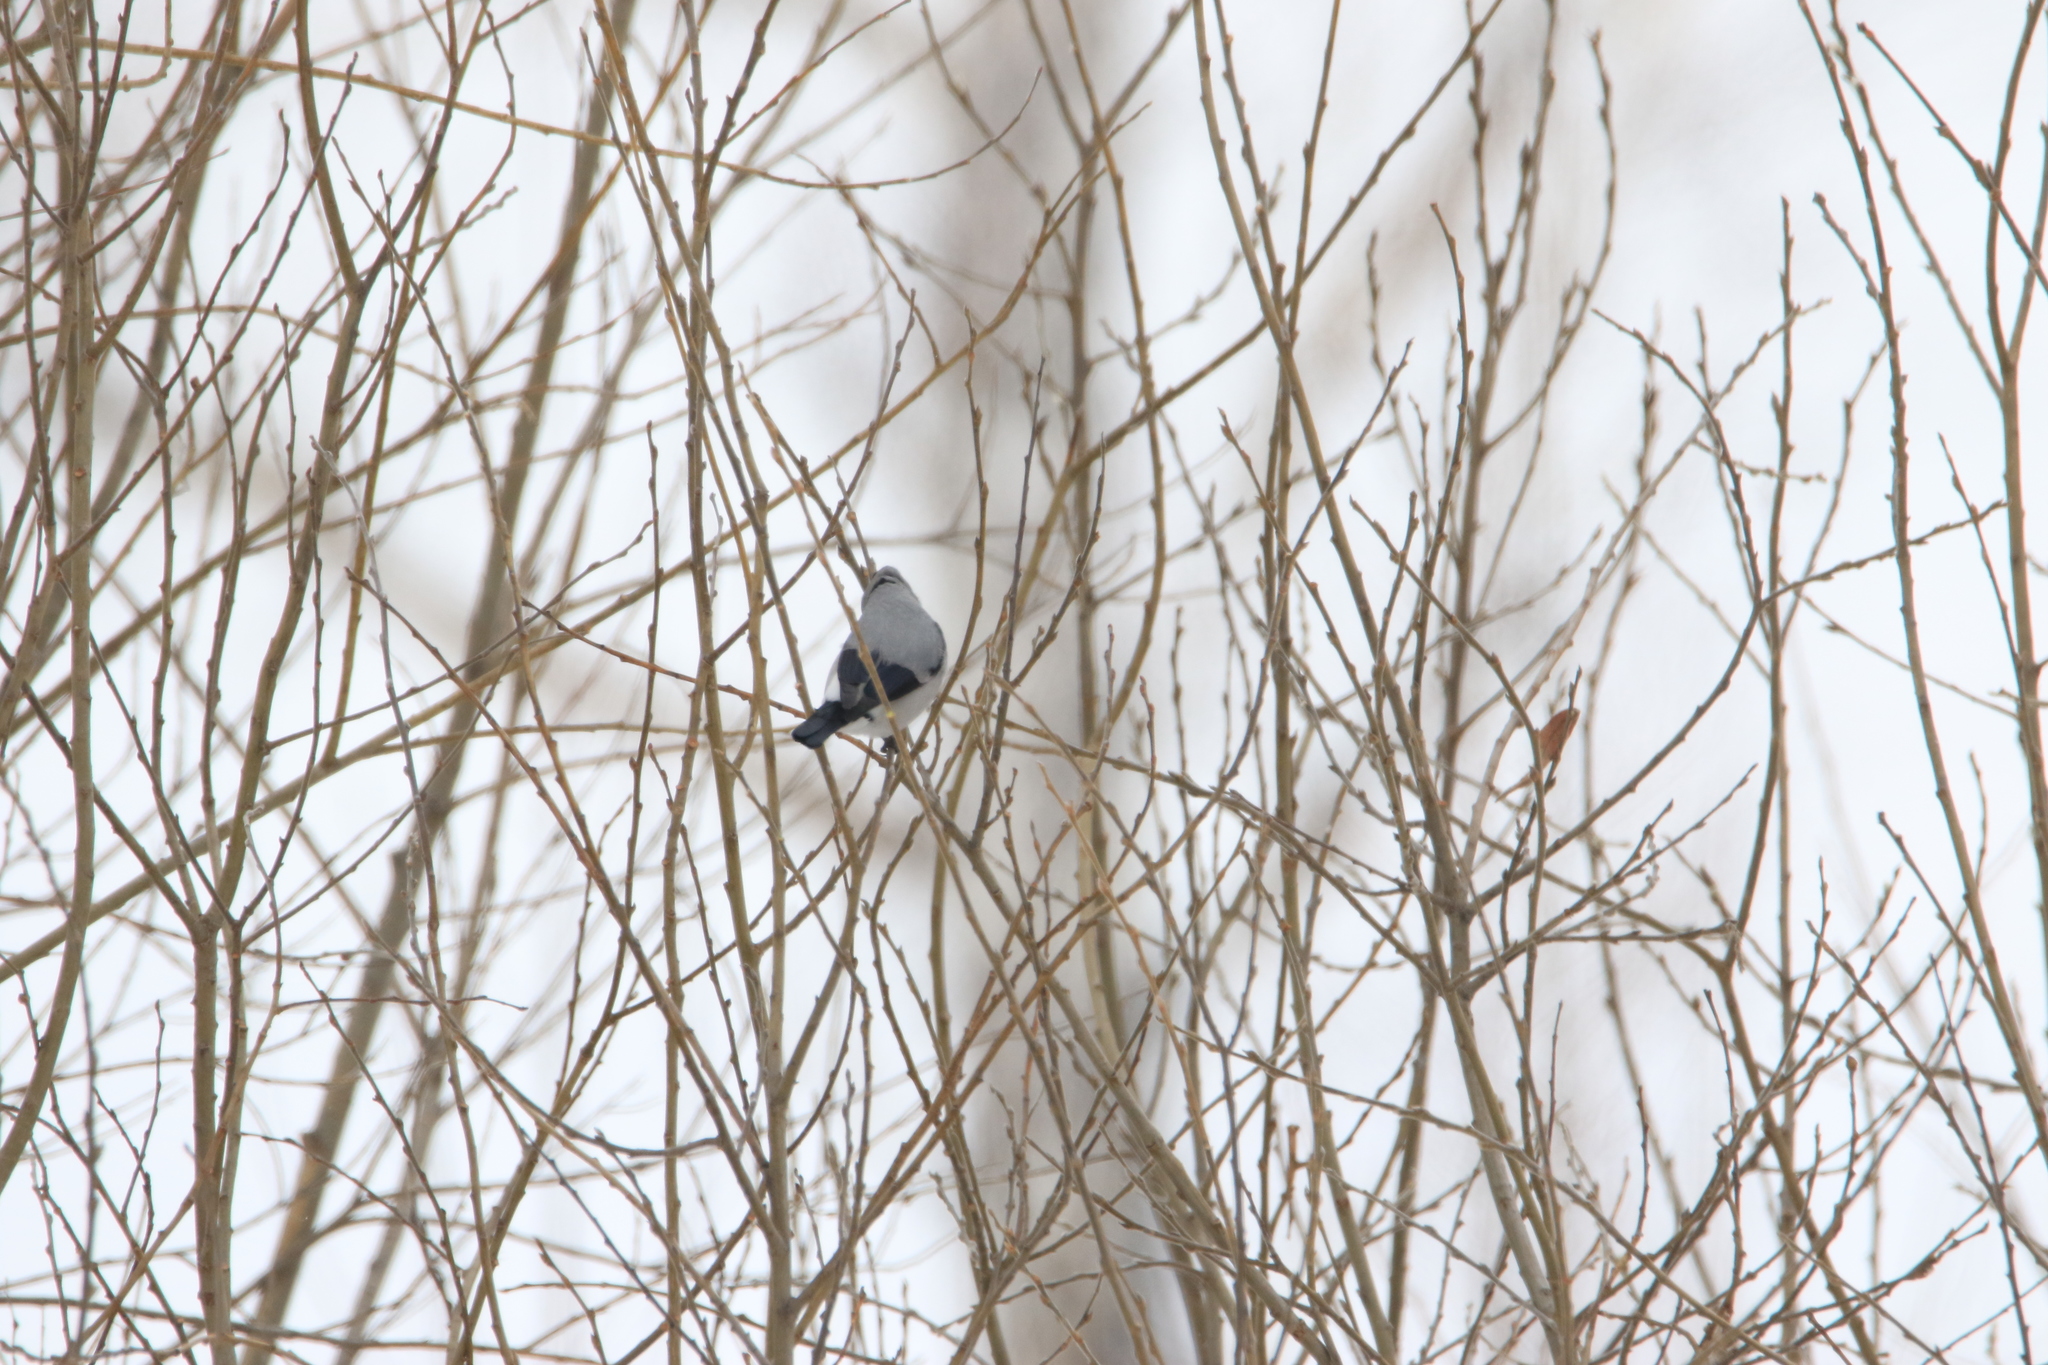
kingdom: Animalia
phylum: Chordata
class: Aves
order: Passeriformes
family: Fringillidae
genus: Pyrrhula
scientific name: Pyrrhula pyrrhula
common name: Eurasian bullfinch
